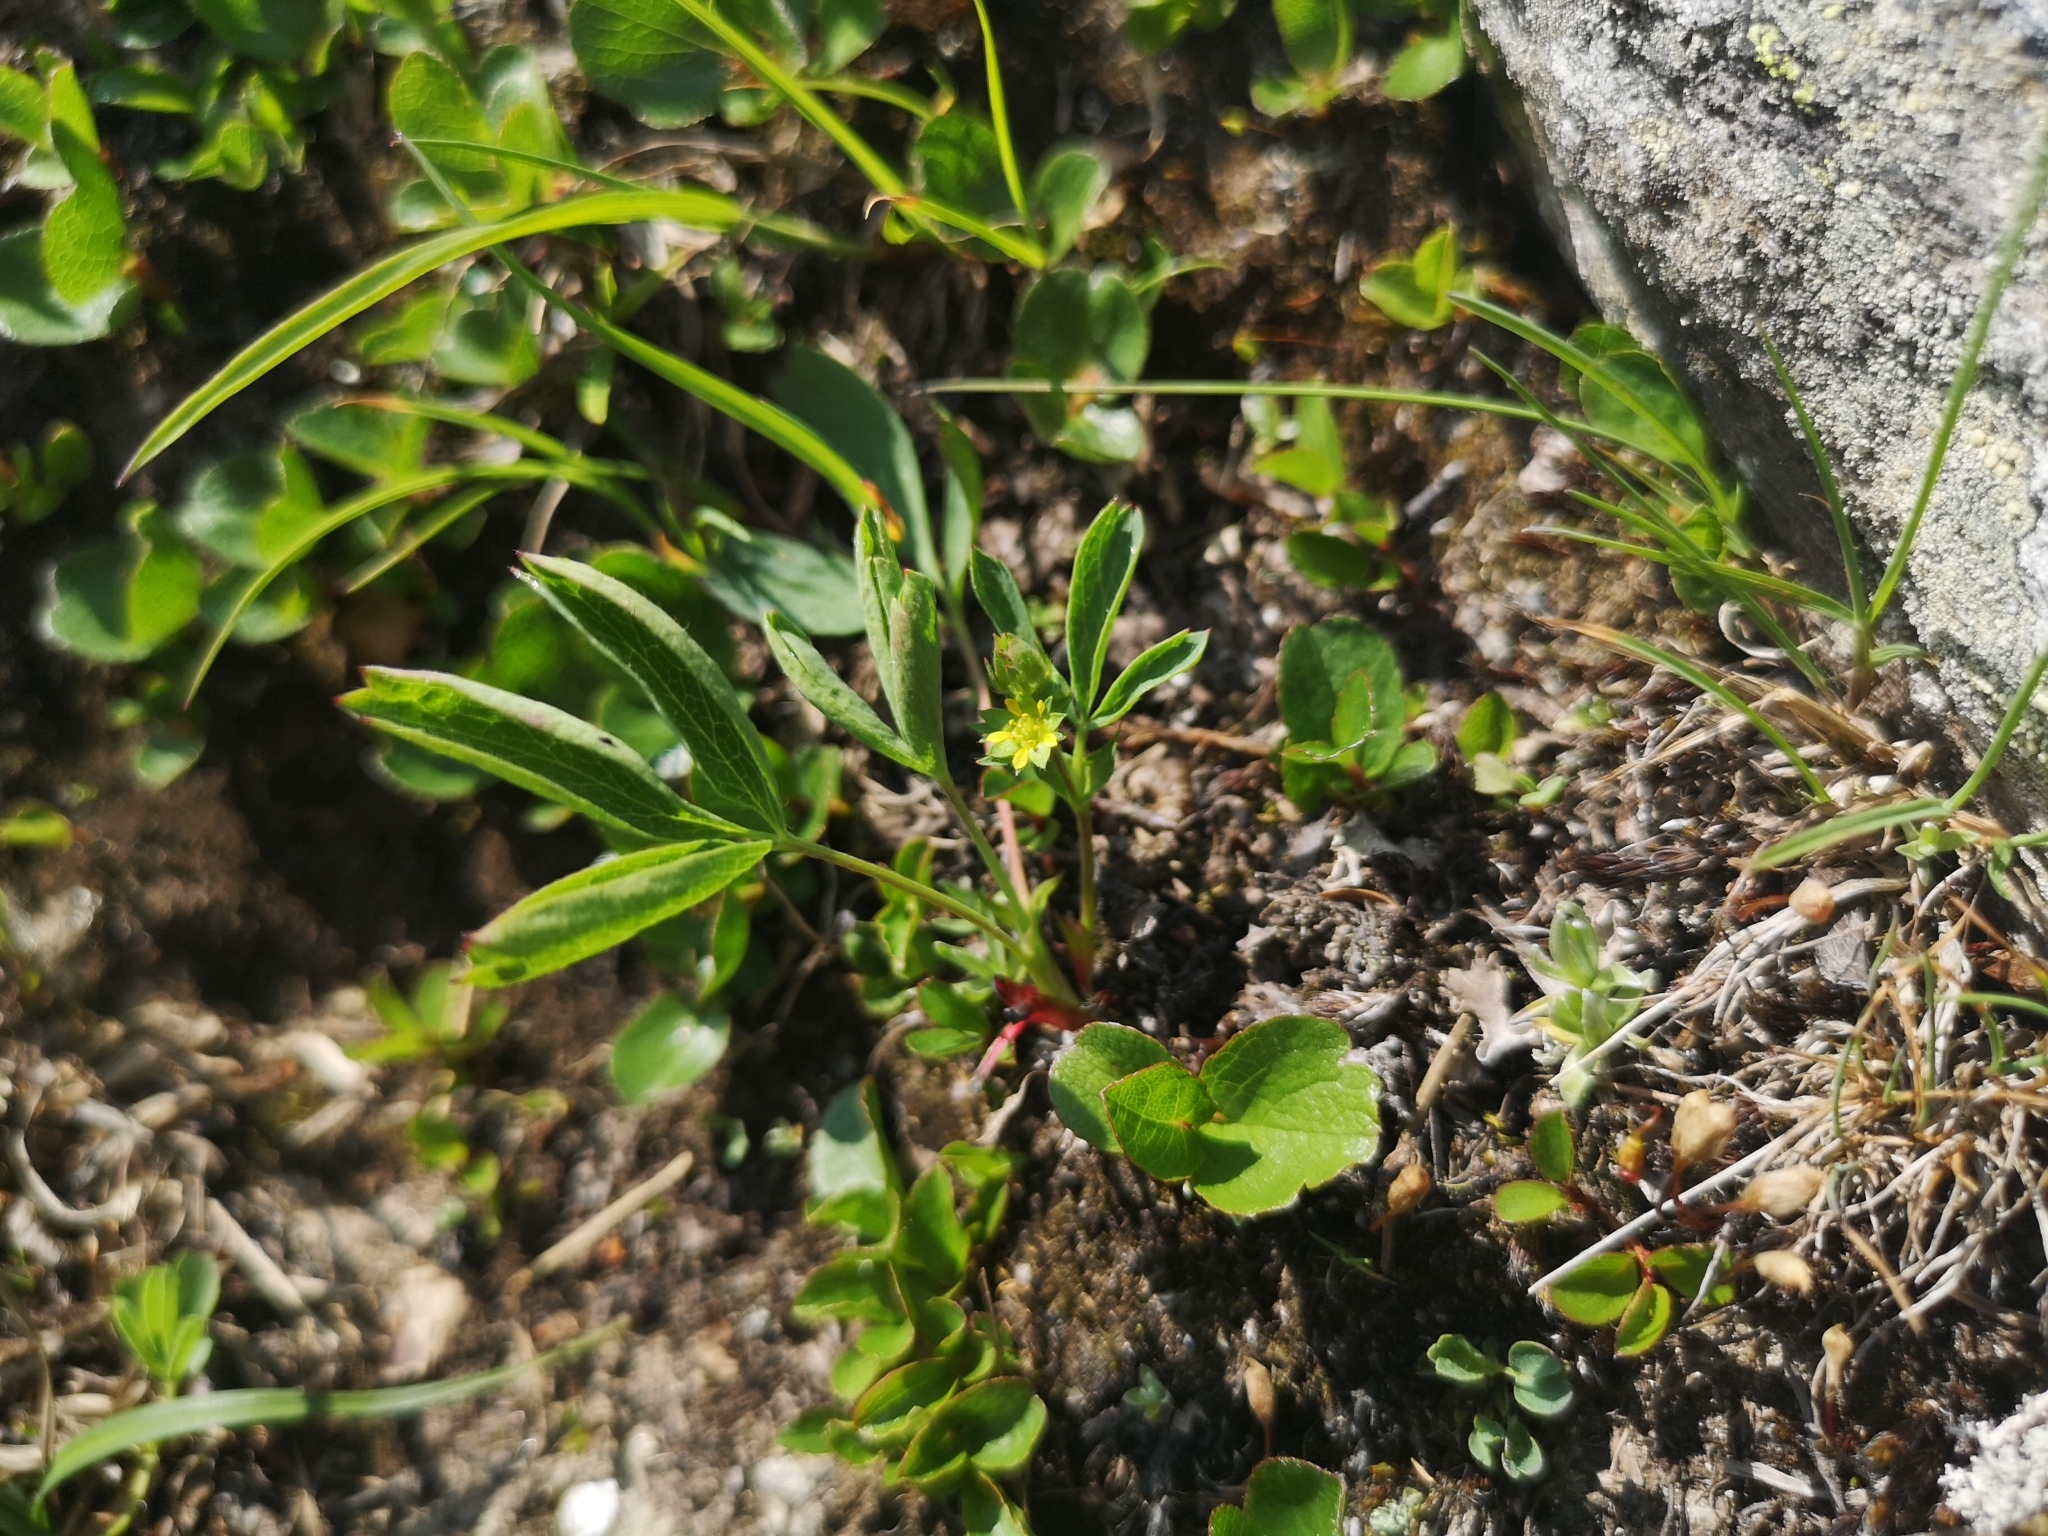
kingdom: Plantae
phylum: Tracheophyta
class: Magnoliopsida
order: Rosales
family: Rosaceae
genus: Sibbaldia
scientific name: Sibbaldia procumbens
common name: Creeping sibbaldia
